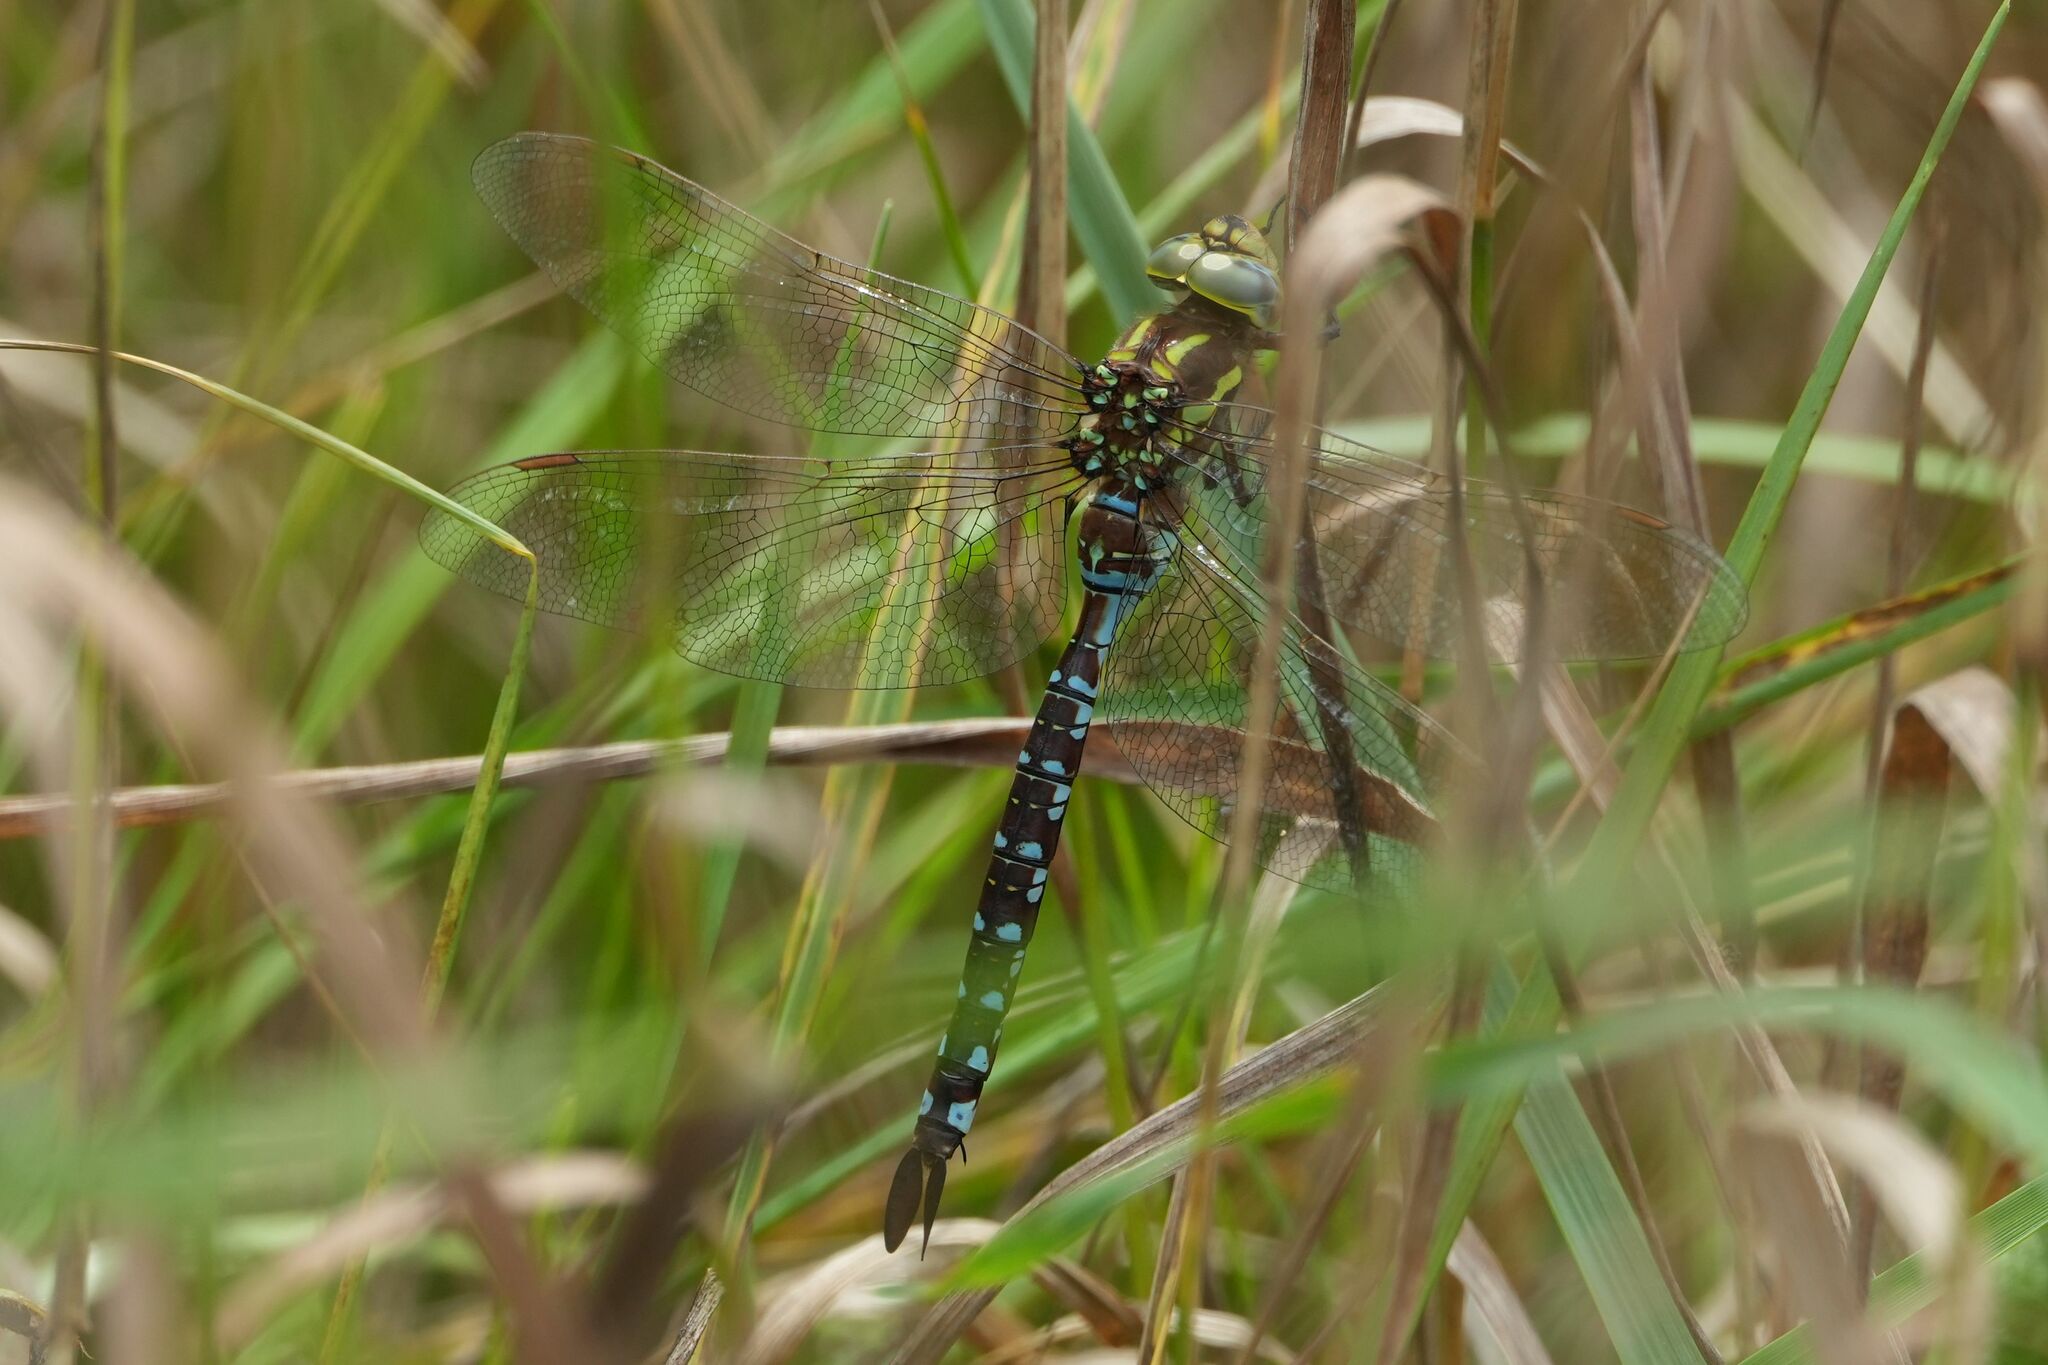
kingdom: Animalia
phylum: Arthropoda
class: Insecta
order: Odonata
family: Aeshnidae
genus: Aeshna
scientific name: Aeshna constricta
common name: Lance-tipped darner
